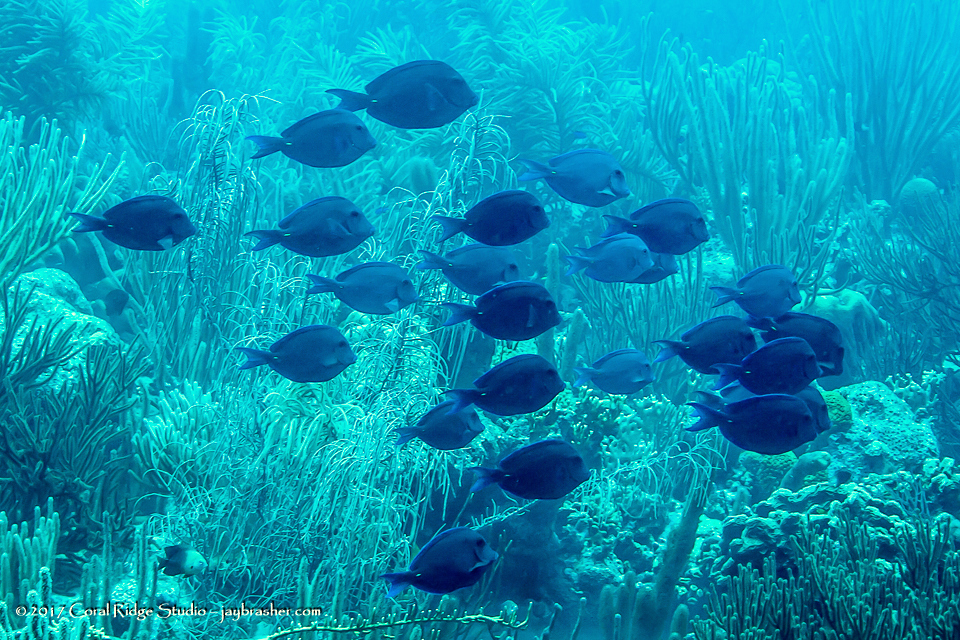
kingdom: Animalia
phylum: Chordata
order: Perciformes
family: Acanthuridae
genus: Acanthurus
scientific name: Acanthurus coeruleus
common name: Blue tang
